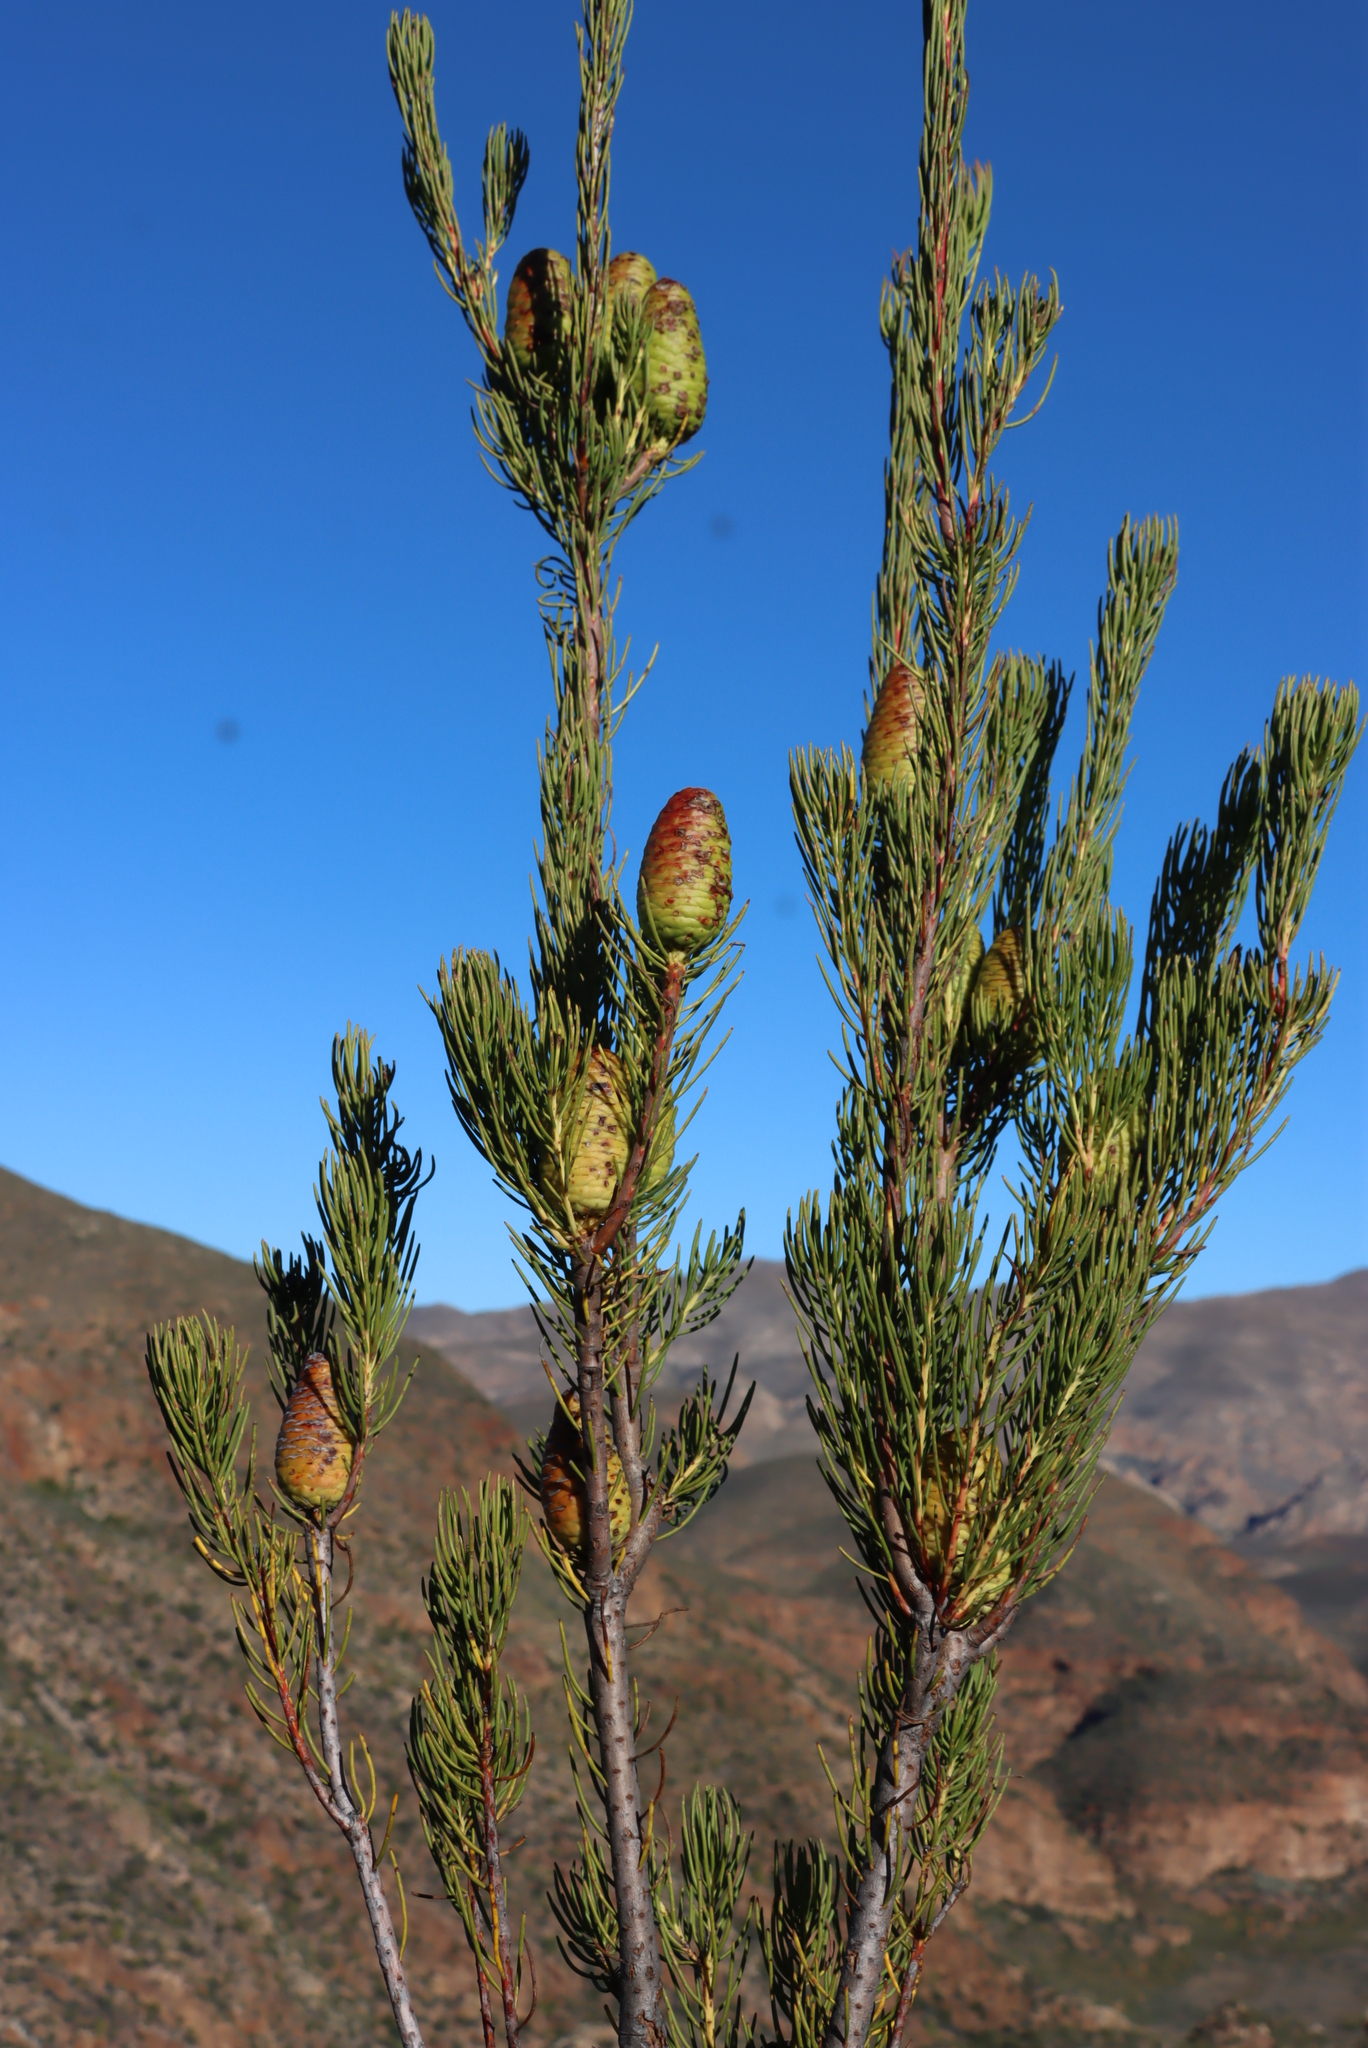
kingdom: Plantae
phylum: Tracheophyta
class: Magnoliopsida
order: Proteales
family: Proteaceae
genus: Leucadendron
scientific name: Leucadendron nobile
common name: Karoo conebush
